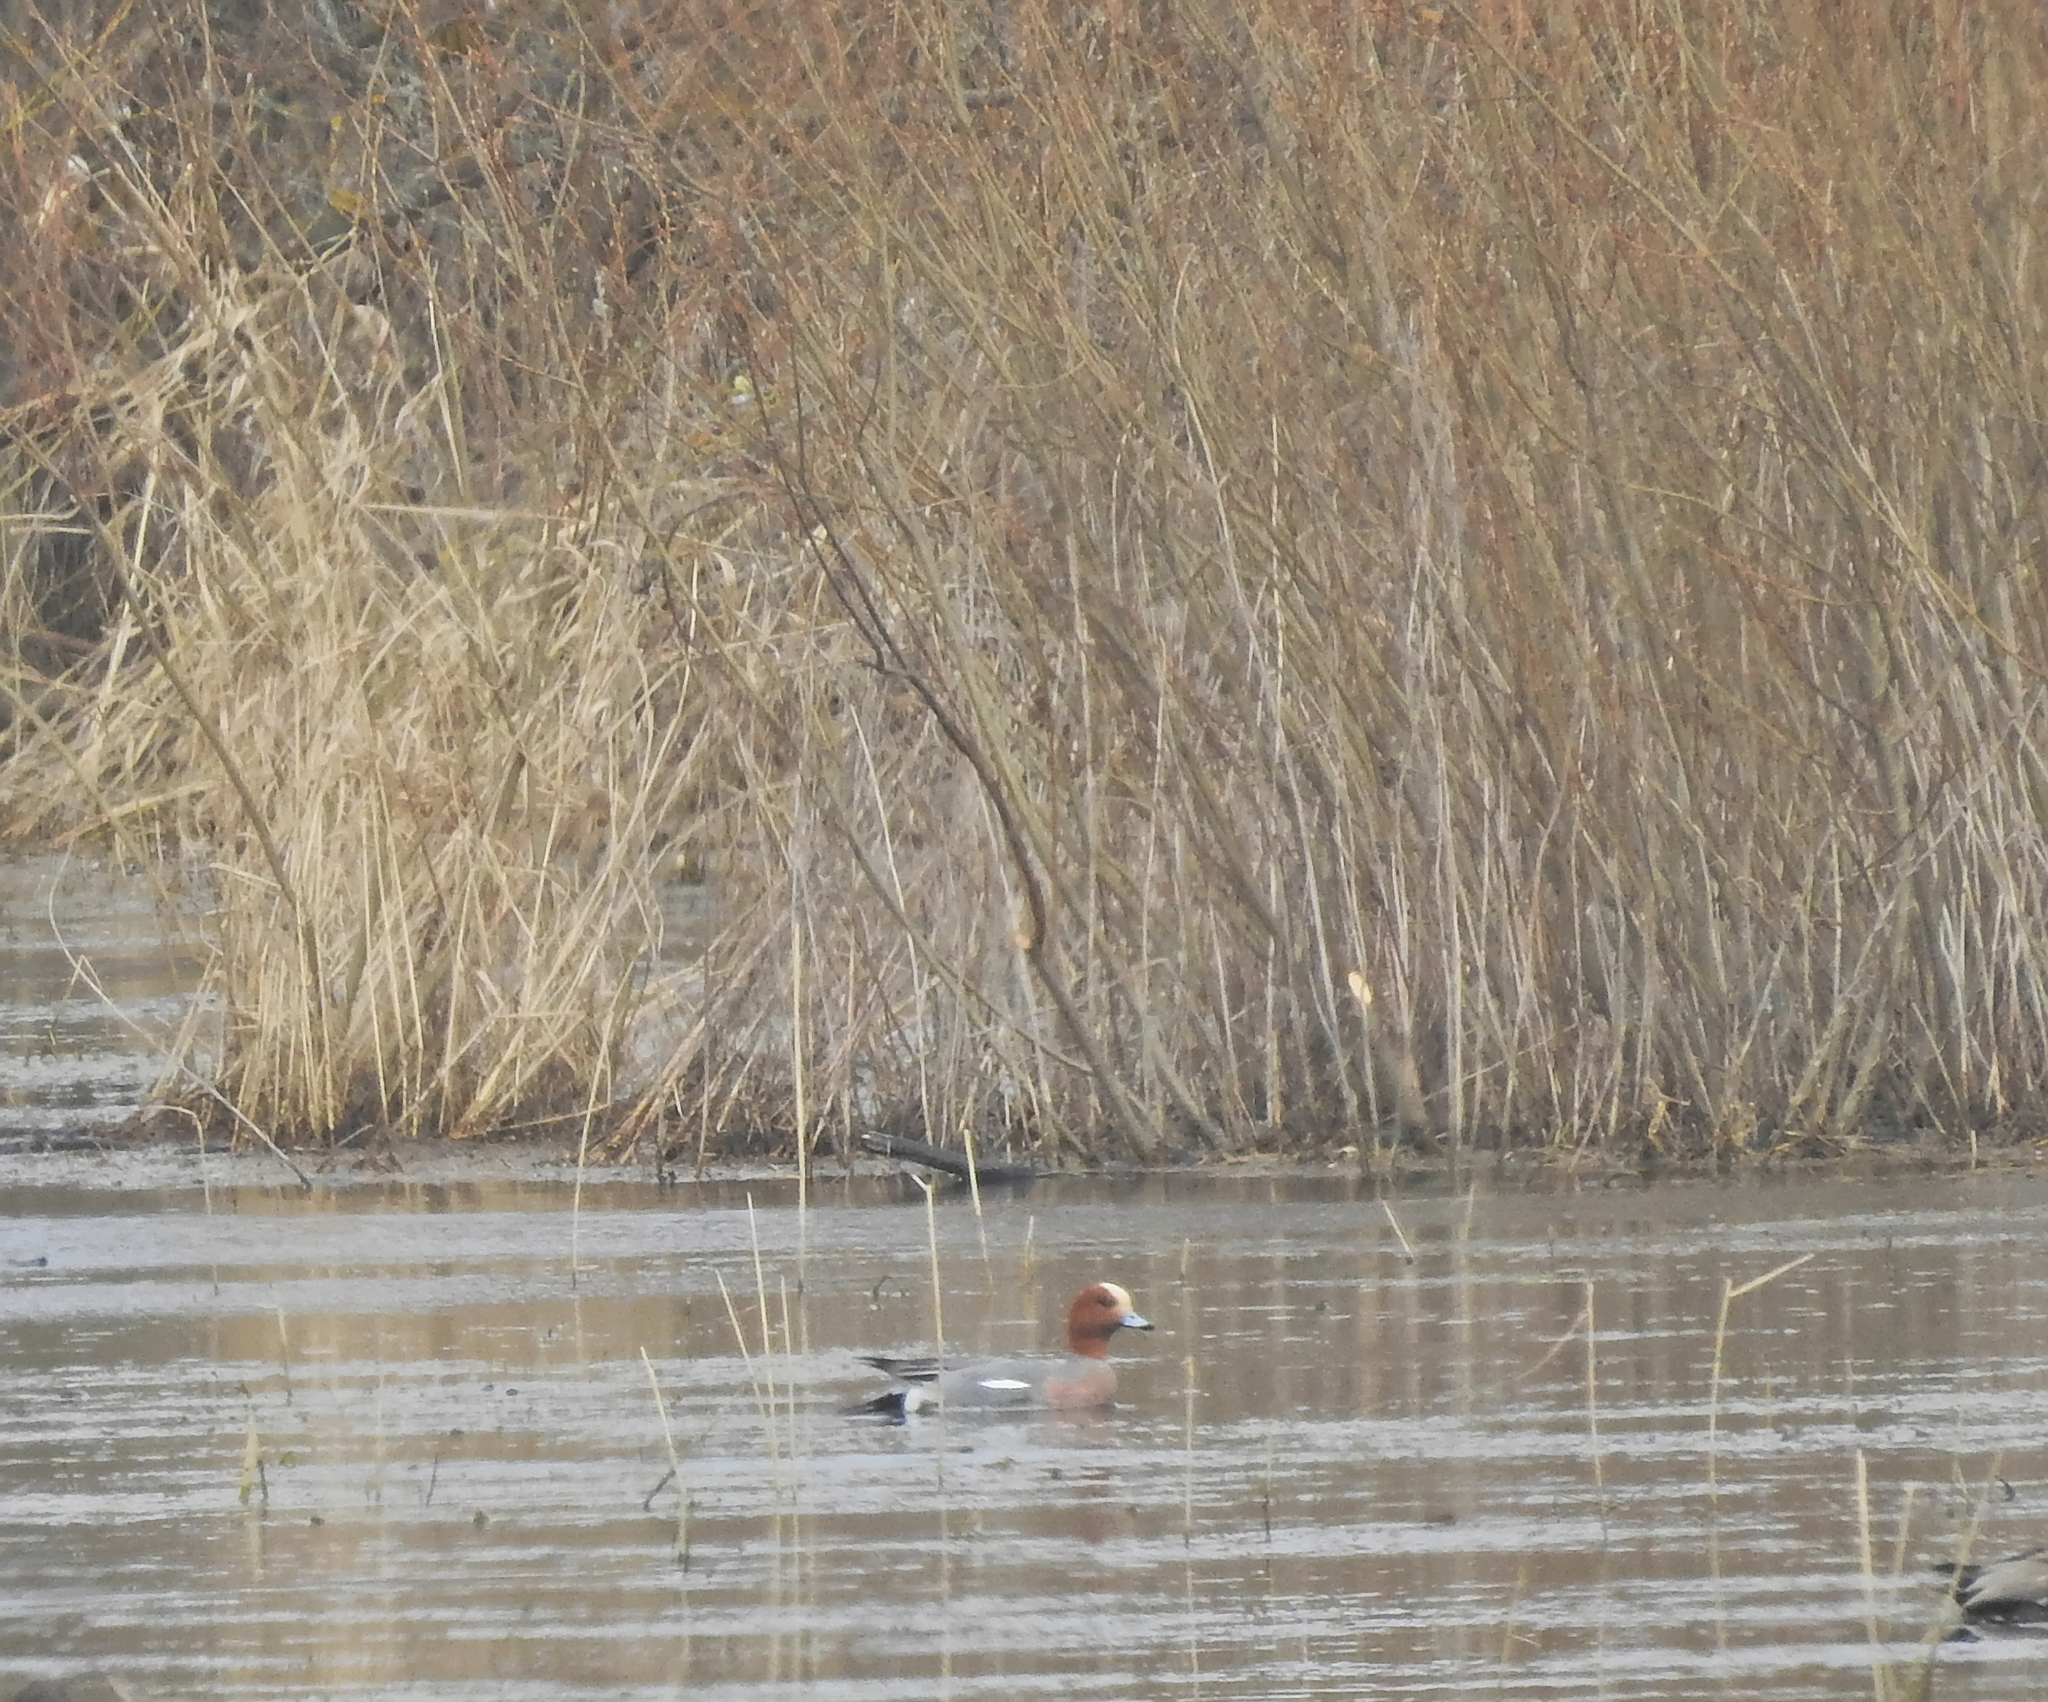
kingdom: Animalia
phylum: Chordata
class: Aves
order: Anseriformes
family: Anatidae
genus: Mareca
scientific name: Mareca penelope
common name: Eurasian wigeon
